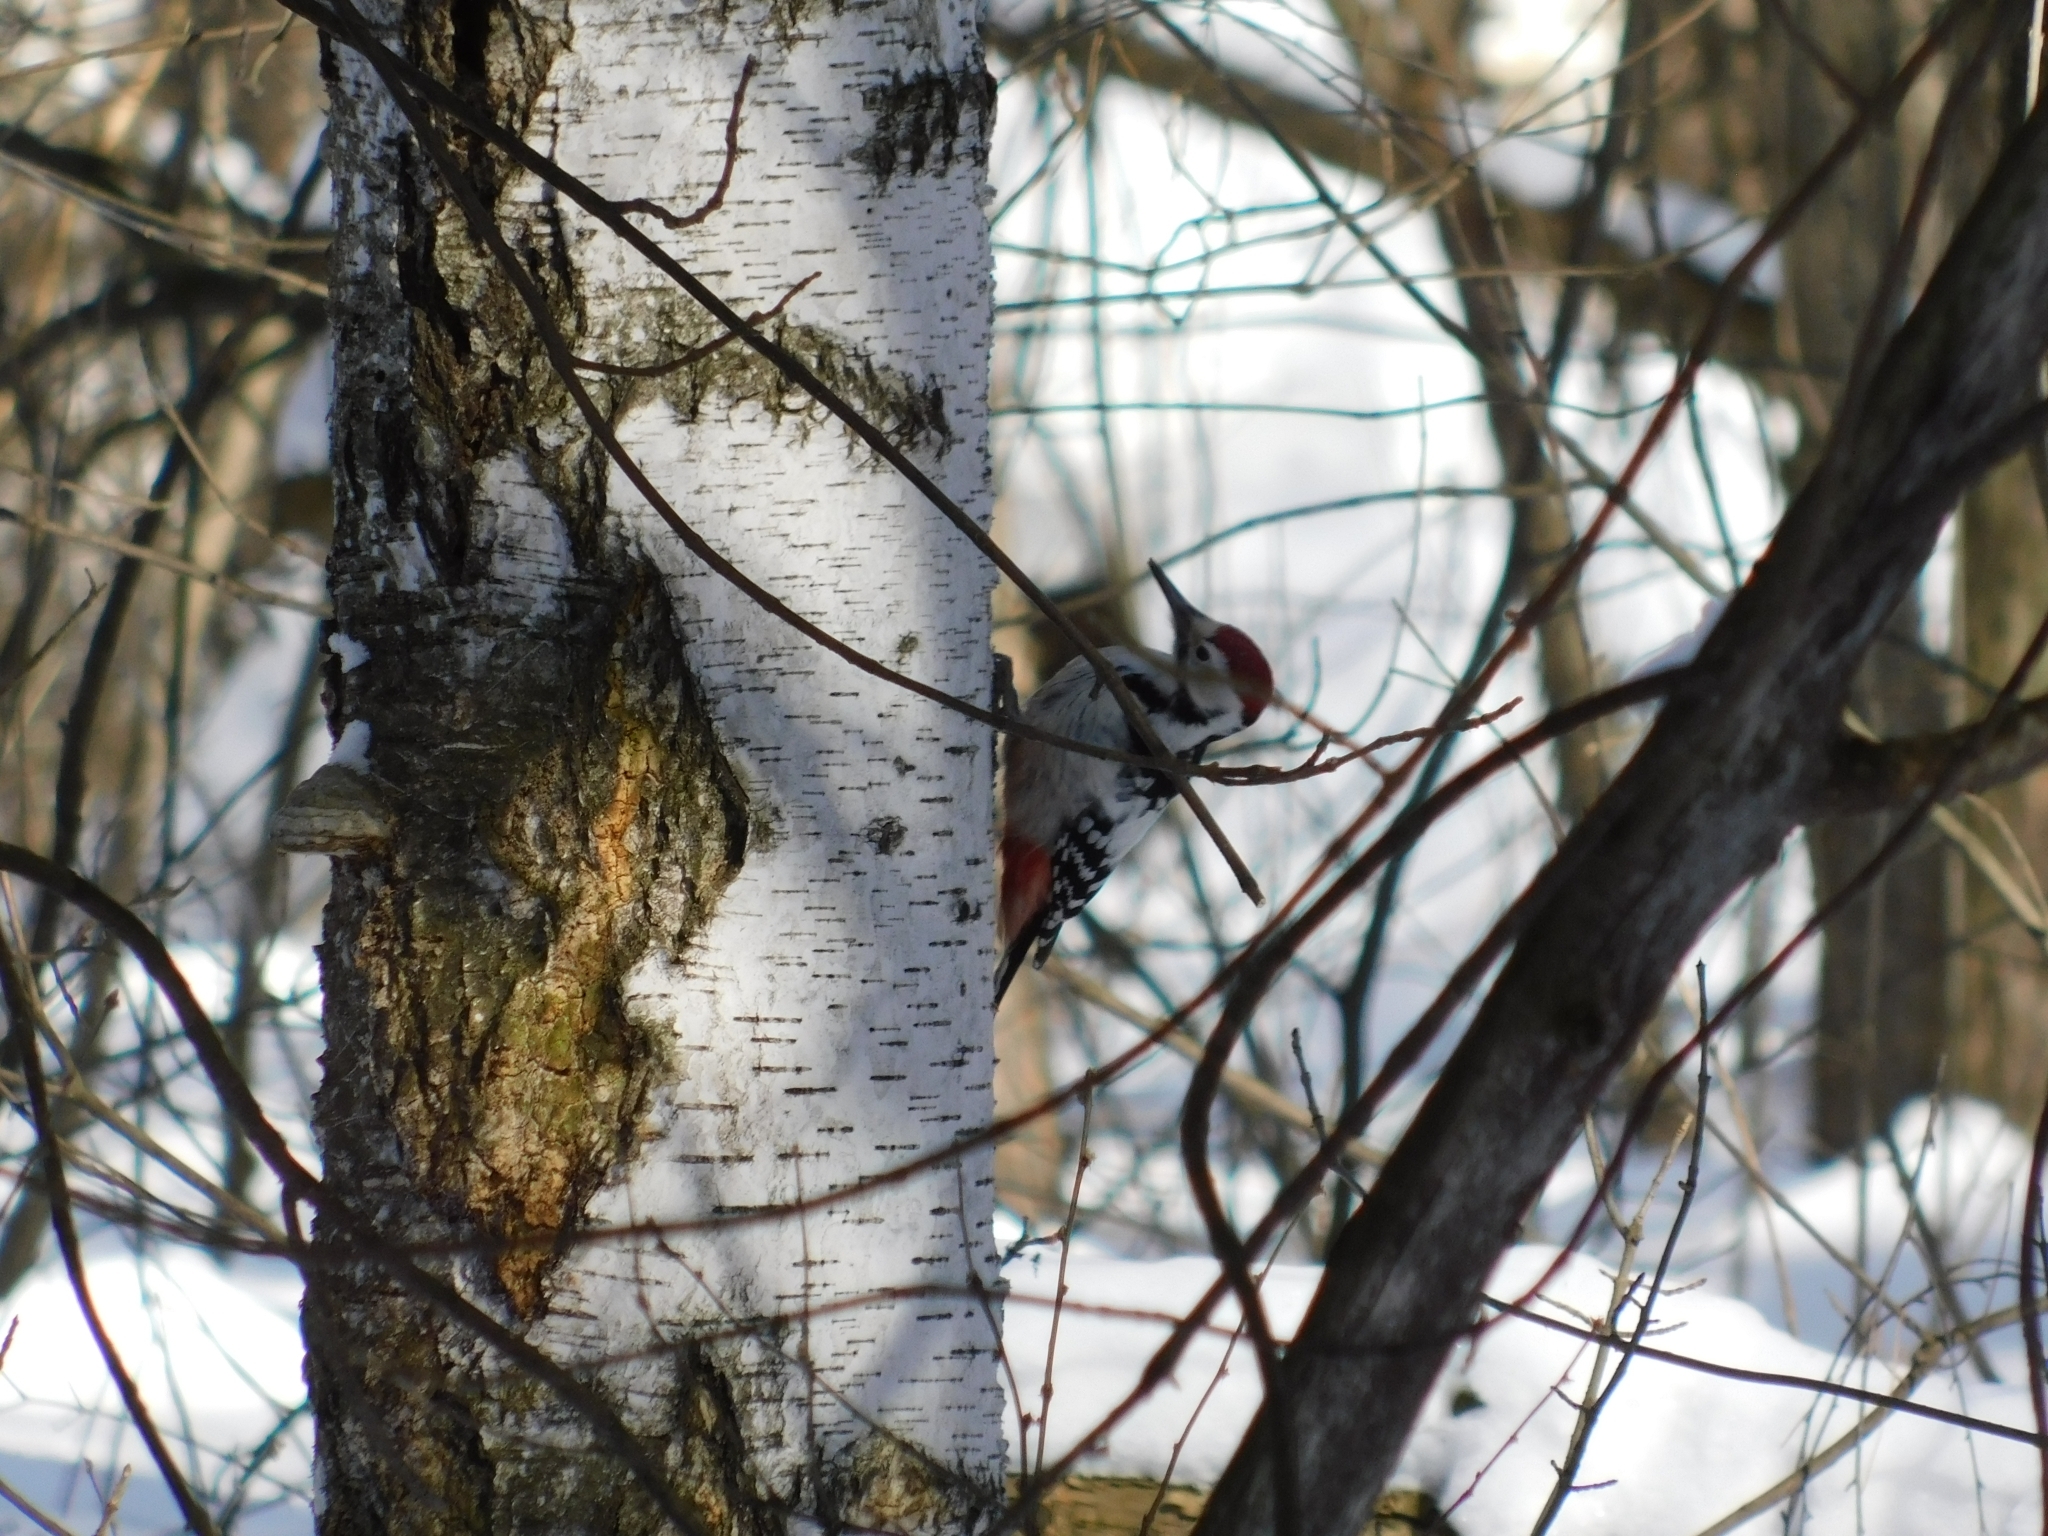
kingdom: Animalia
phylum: Chordata
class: Aves
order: Piciformes
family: Picidae
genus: Dendrocopos
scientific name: Dendrocopos leucotos
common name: White-backed woodpecker
